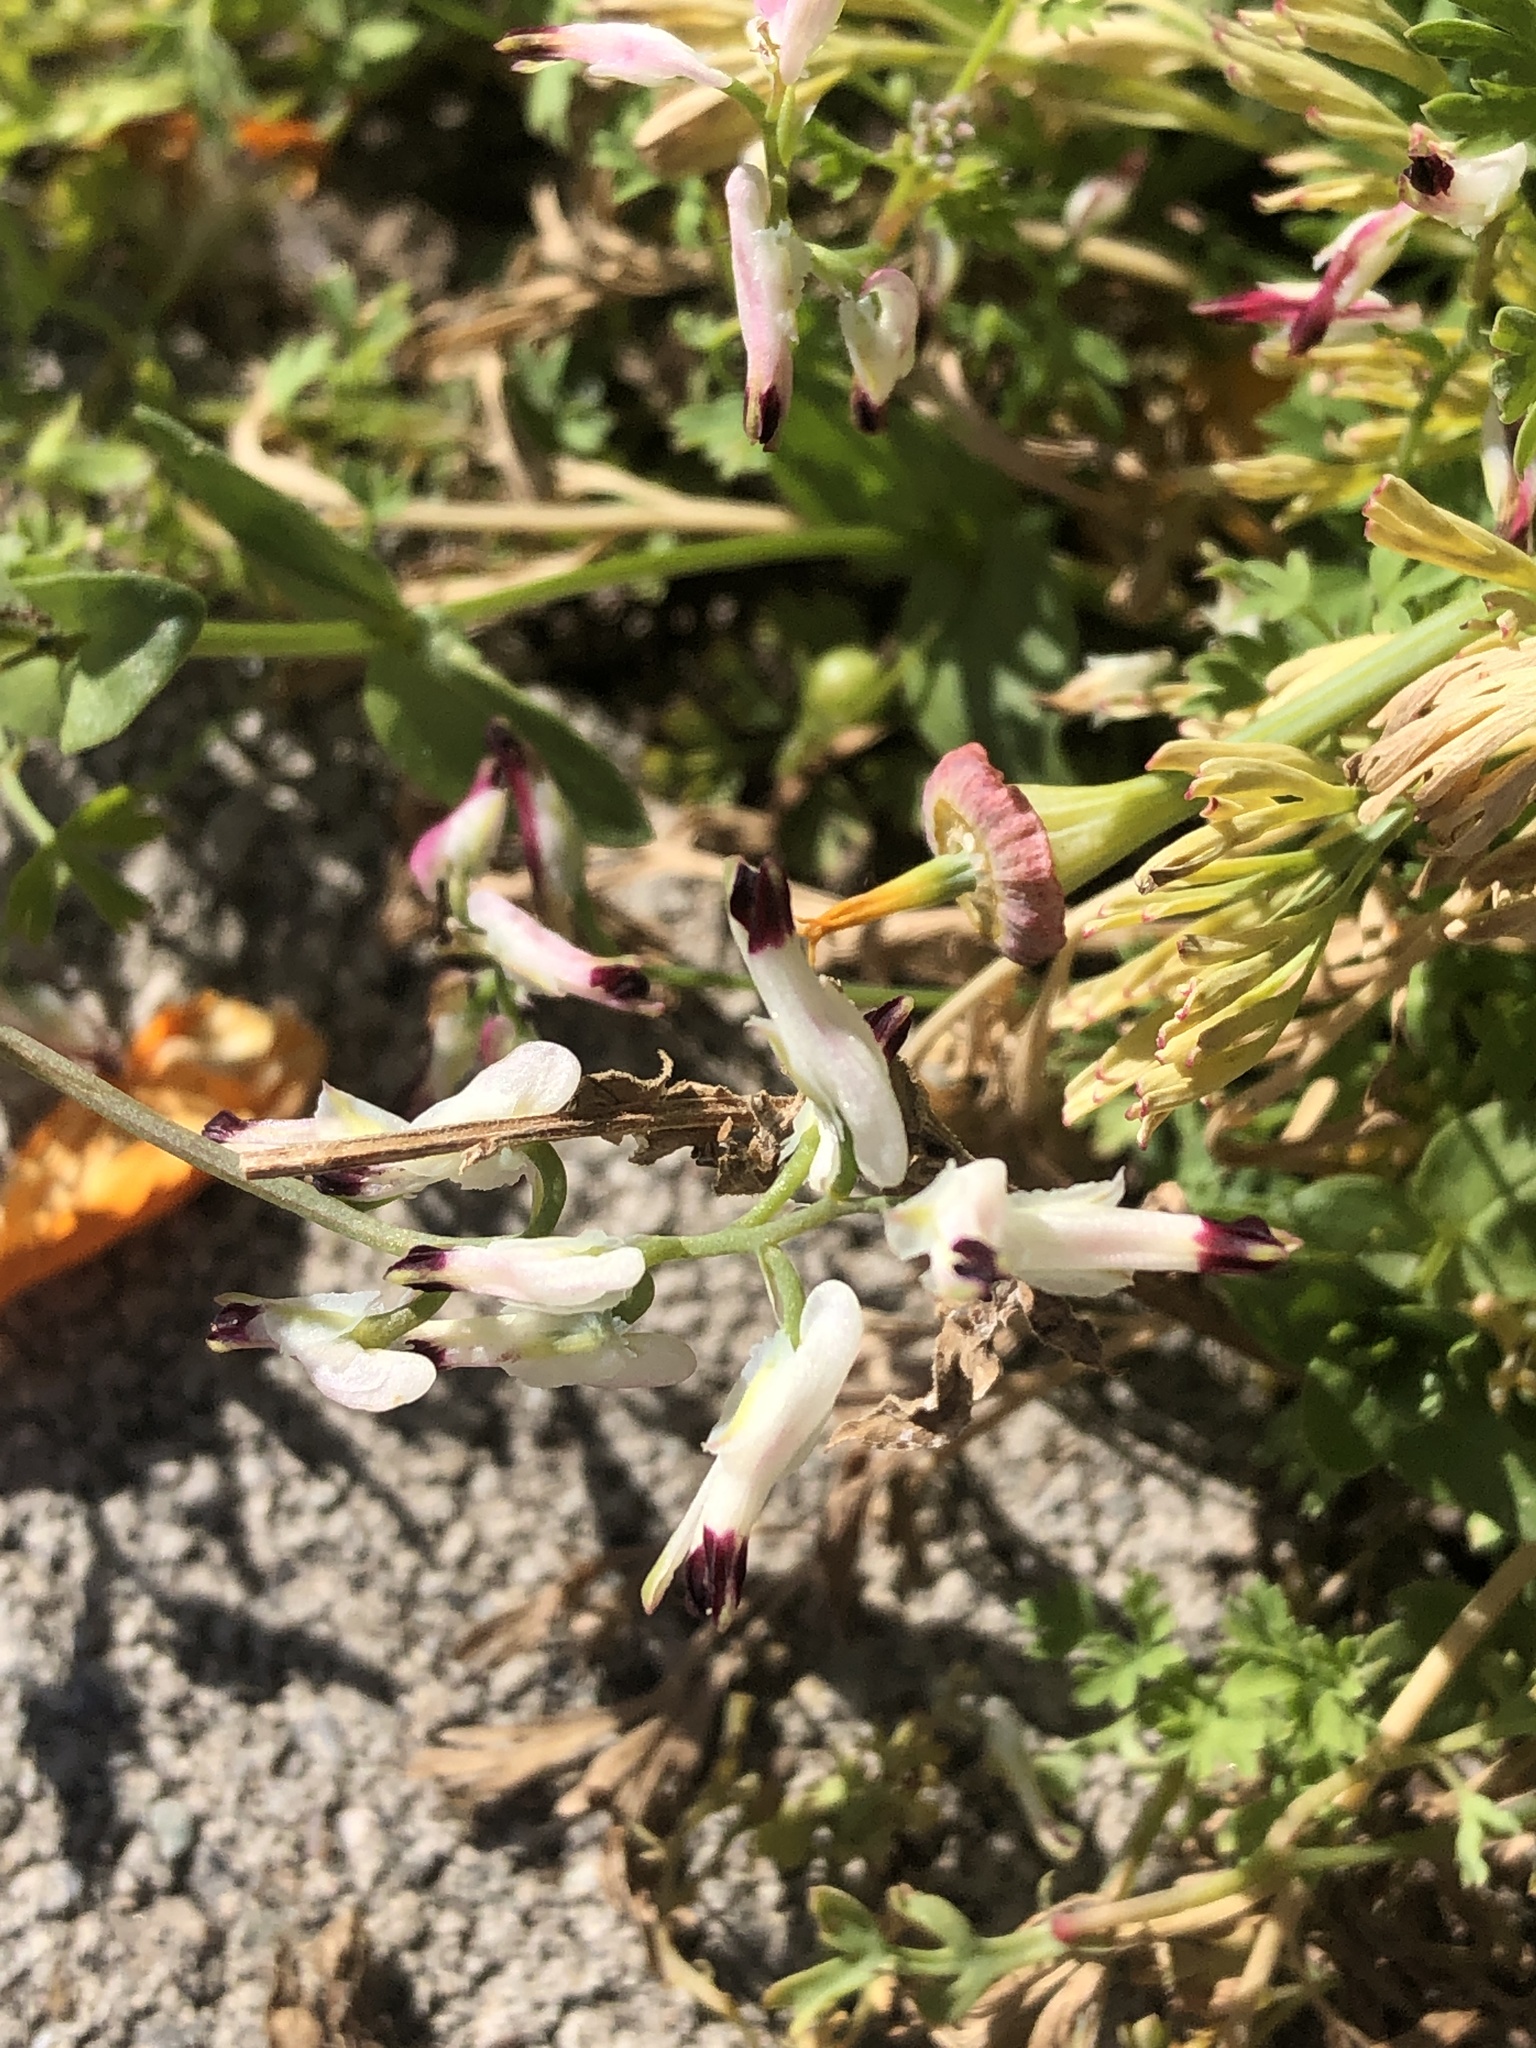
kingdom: Plantae
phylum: Tracheophyta
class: Magnoliopsida
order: Ranunculales
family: Papaveraceae
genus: Fumaria
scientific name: Fumaria capreolata
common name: White ramping-fumitory
